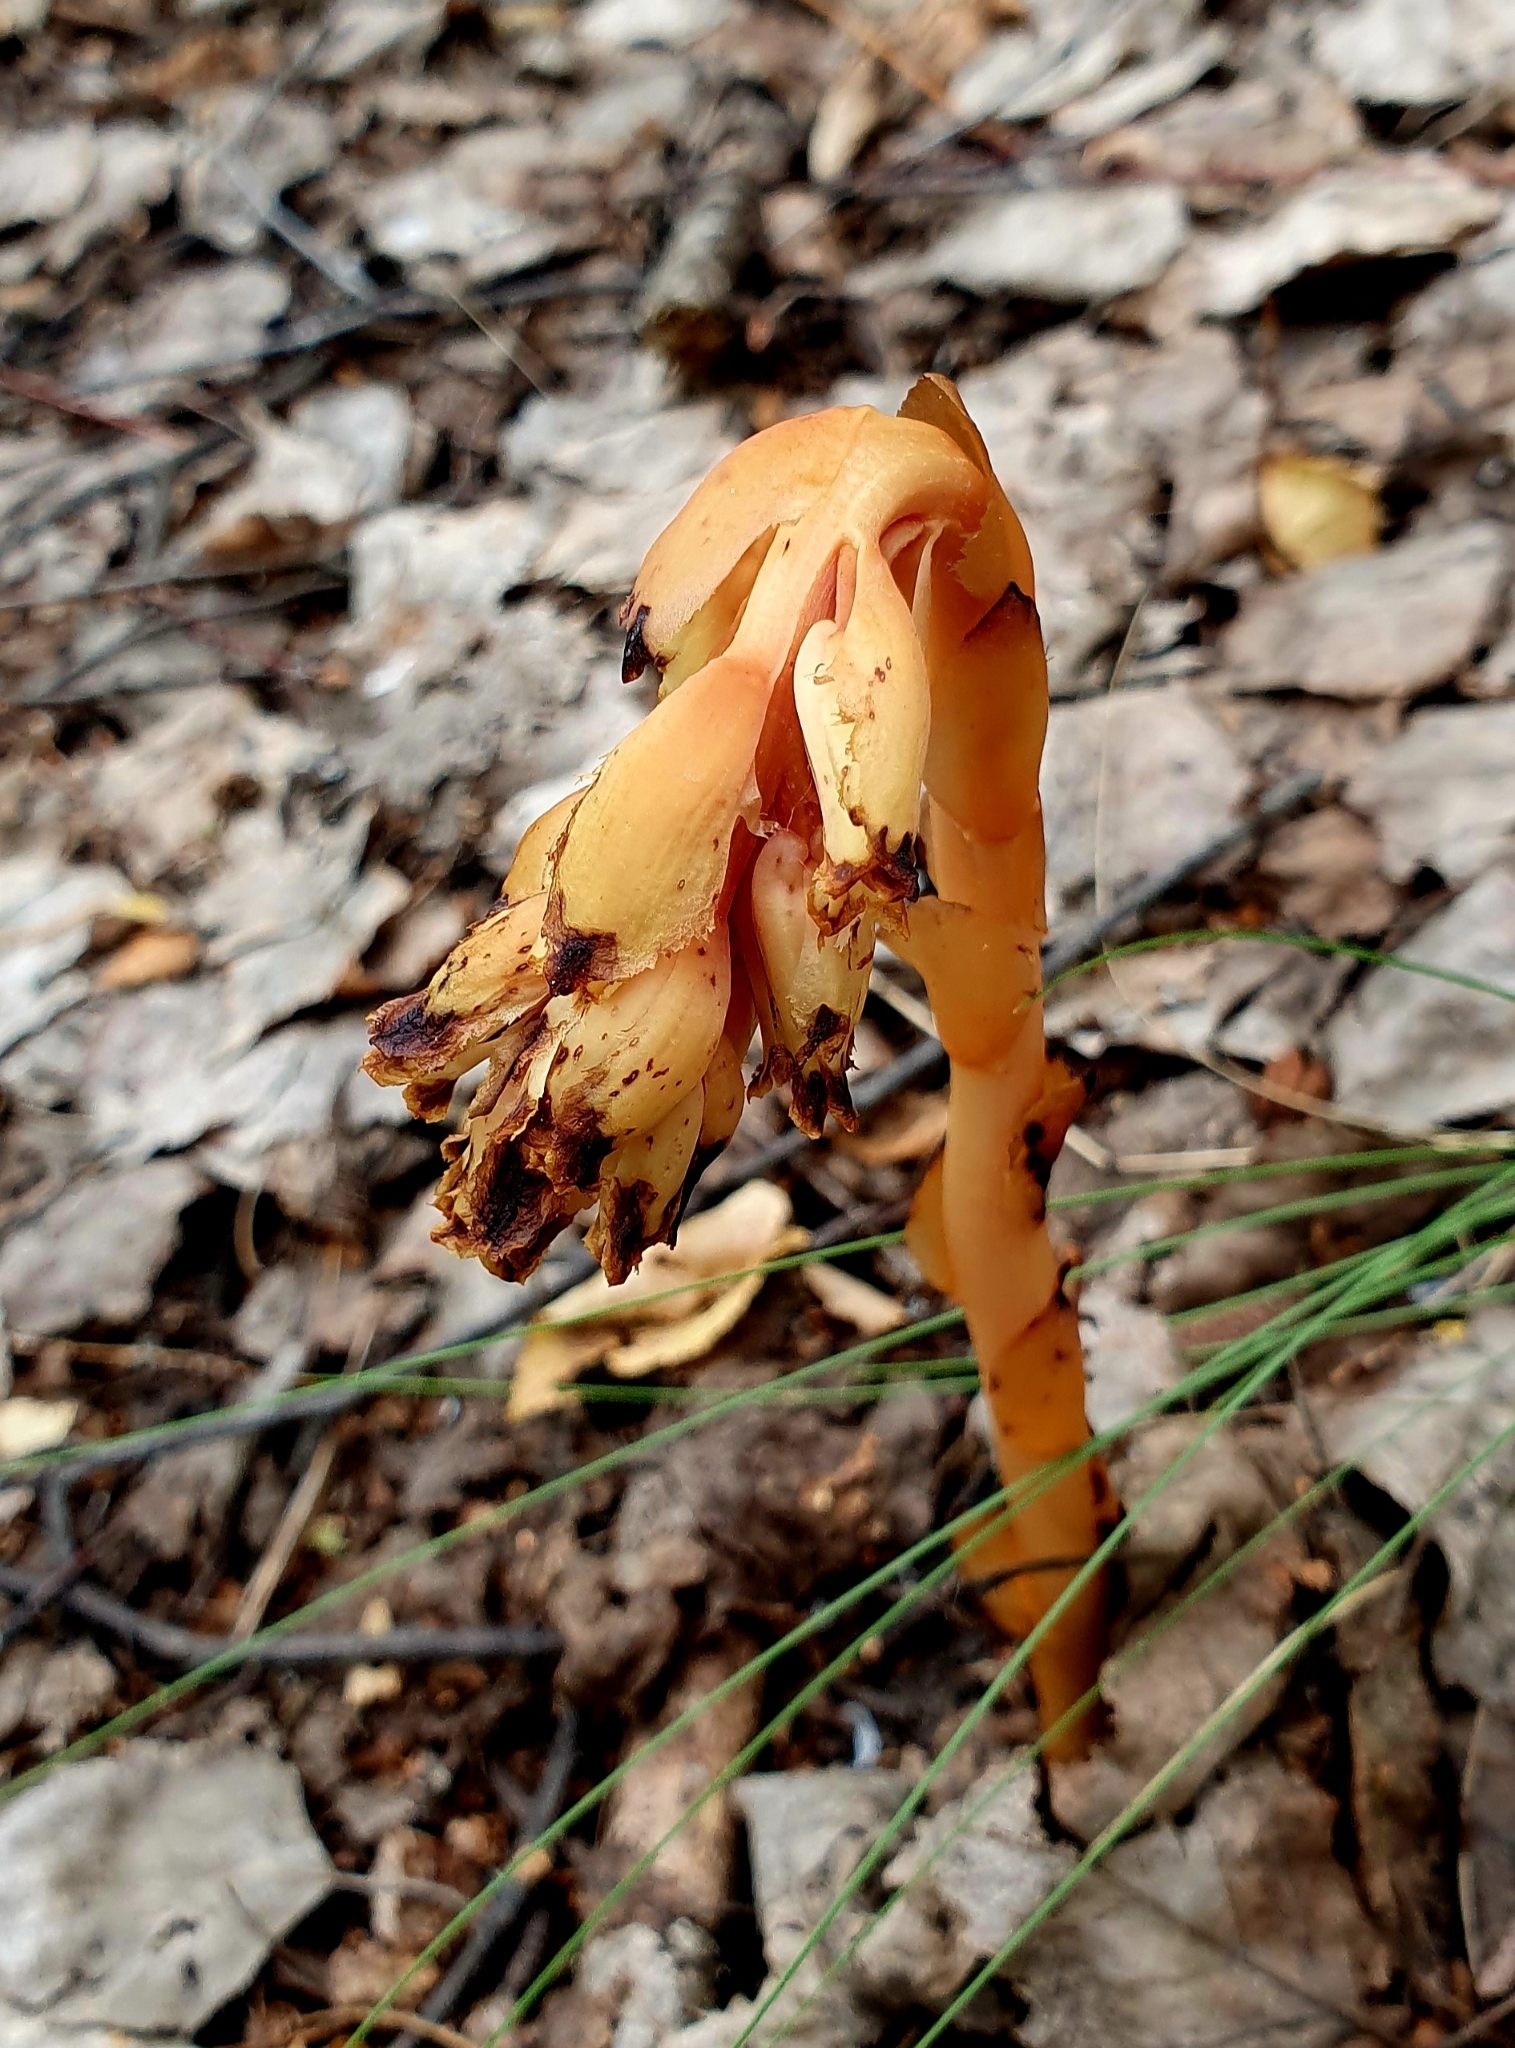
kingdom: Plantae
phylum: Tracheophyta
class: Magnoliopsida
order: Ericales
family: Ericaceae
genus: Hypopitys
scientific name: Hypopitys monotropa
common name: Yellow bird's-nest
